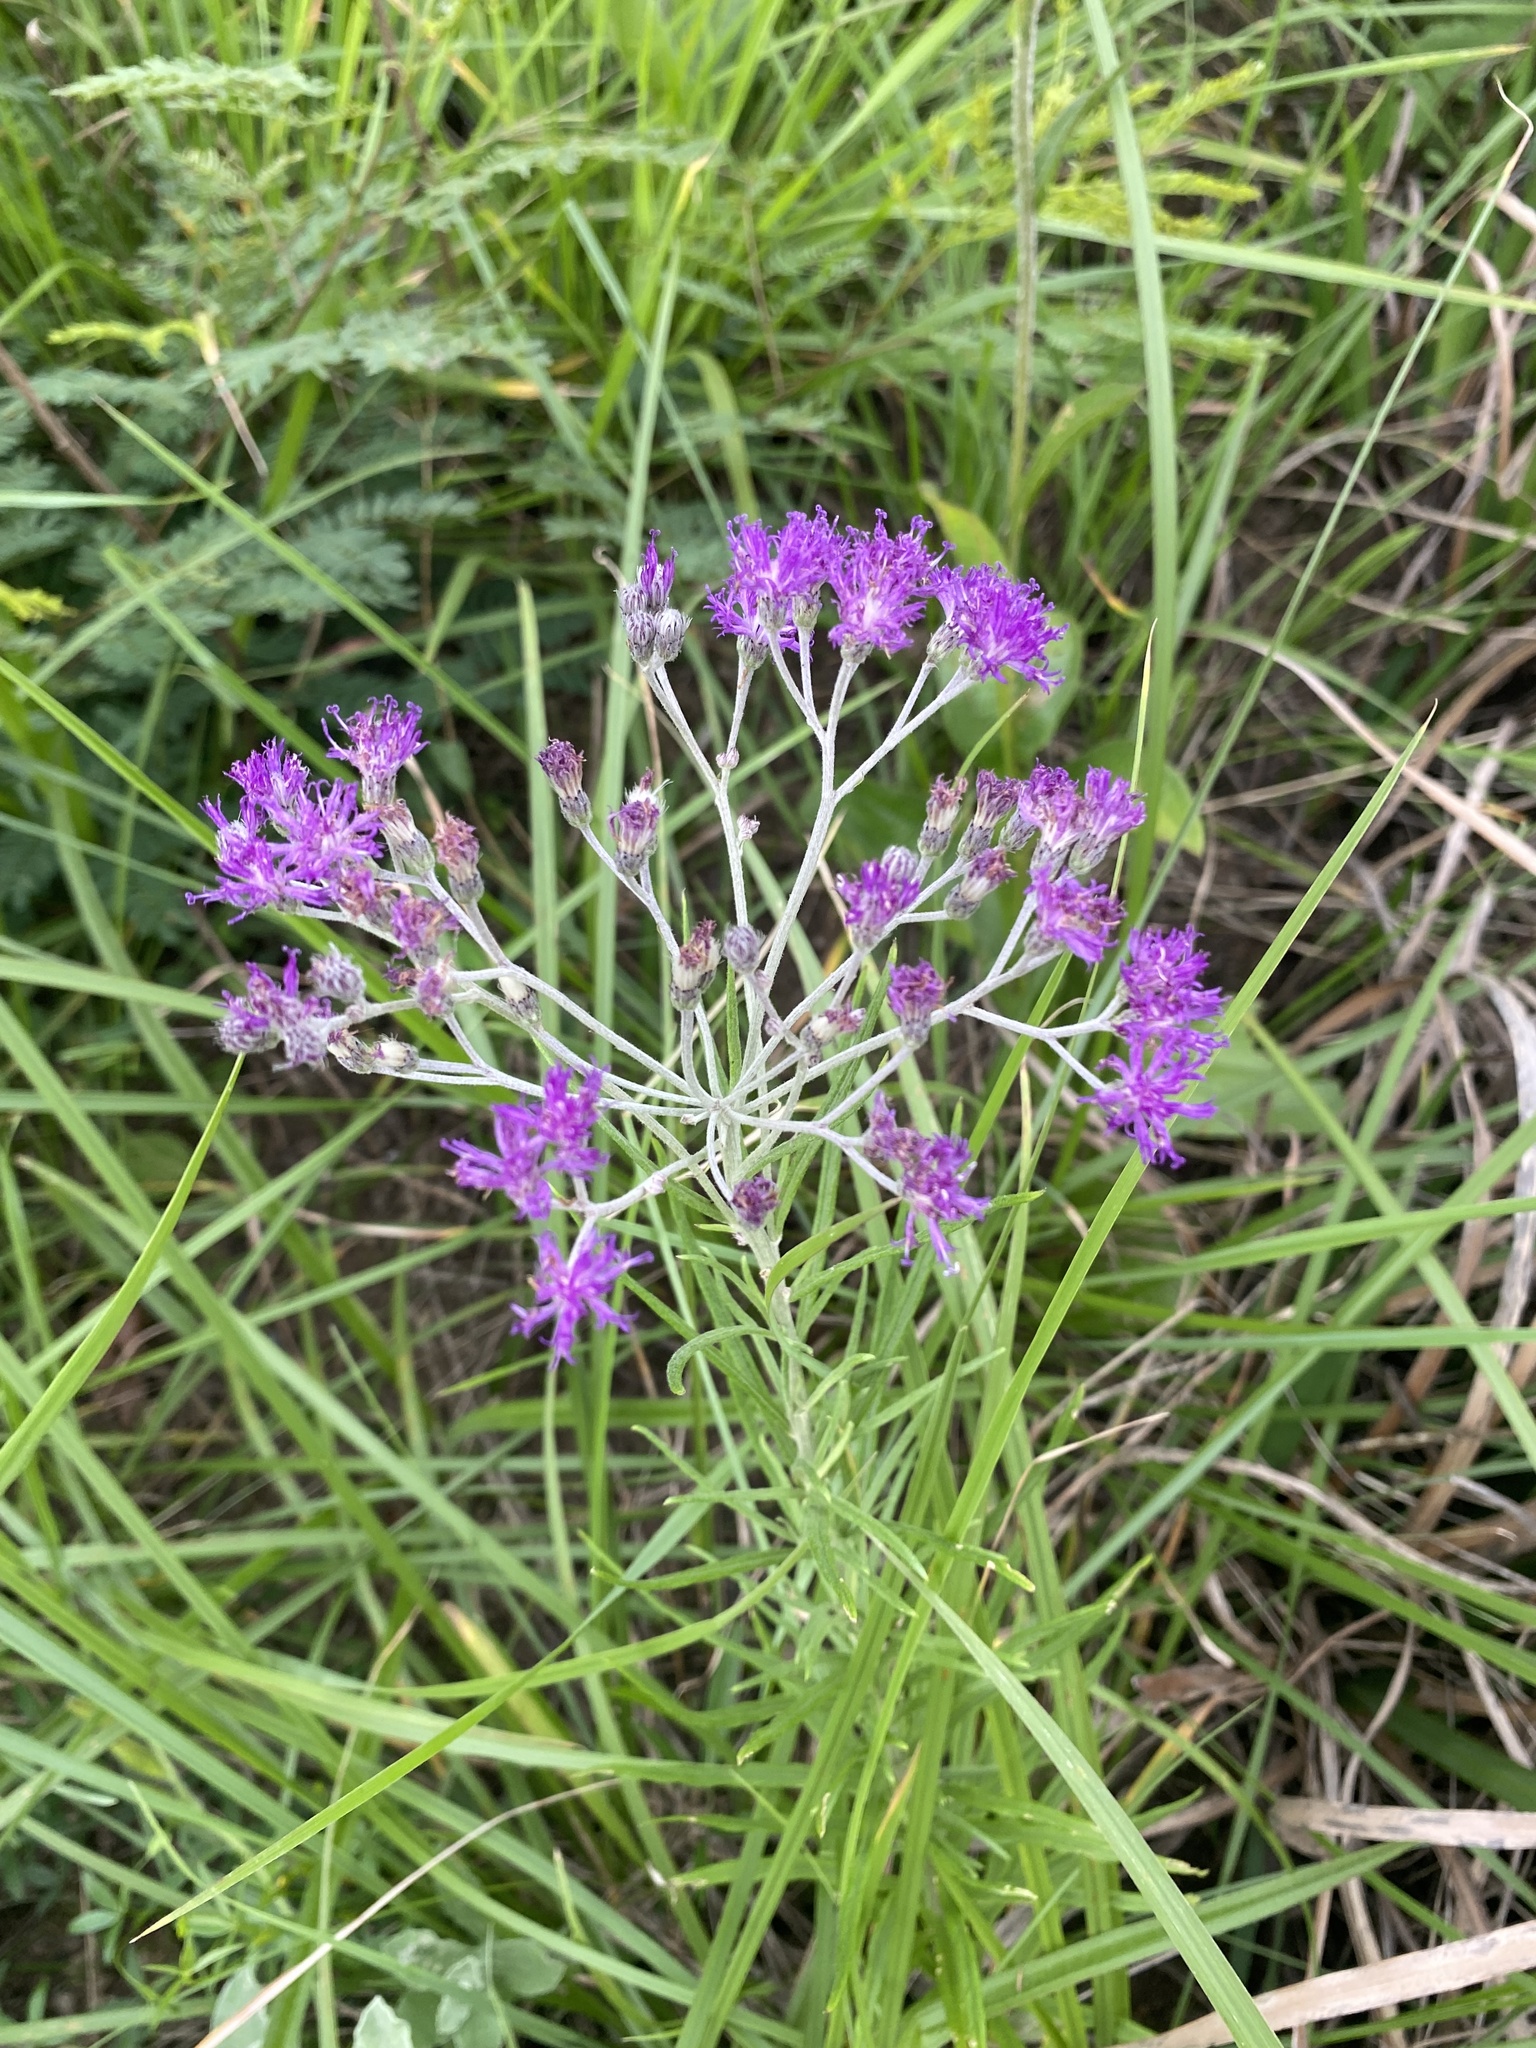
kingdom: Plantae
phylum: Tracheophyta
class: Magnoliopsida
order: Asterales
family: Asteraceae
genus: Hilliardiella
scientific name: Hilliardiella capensis
